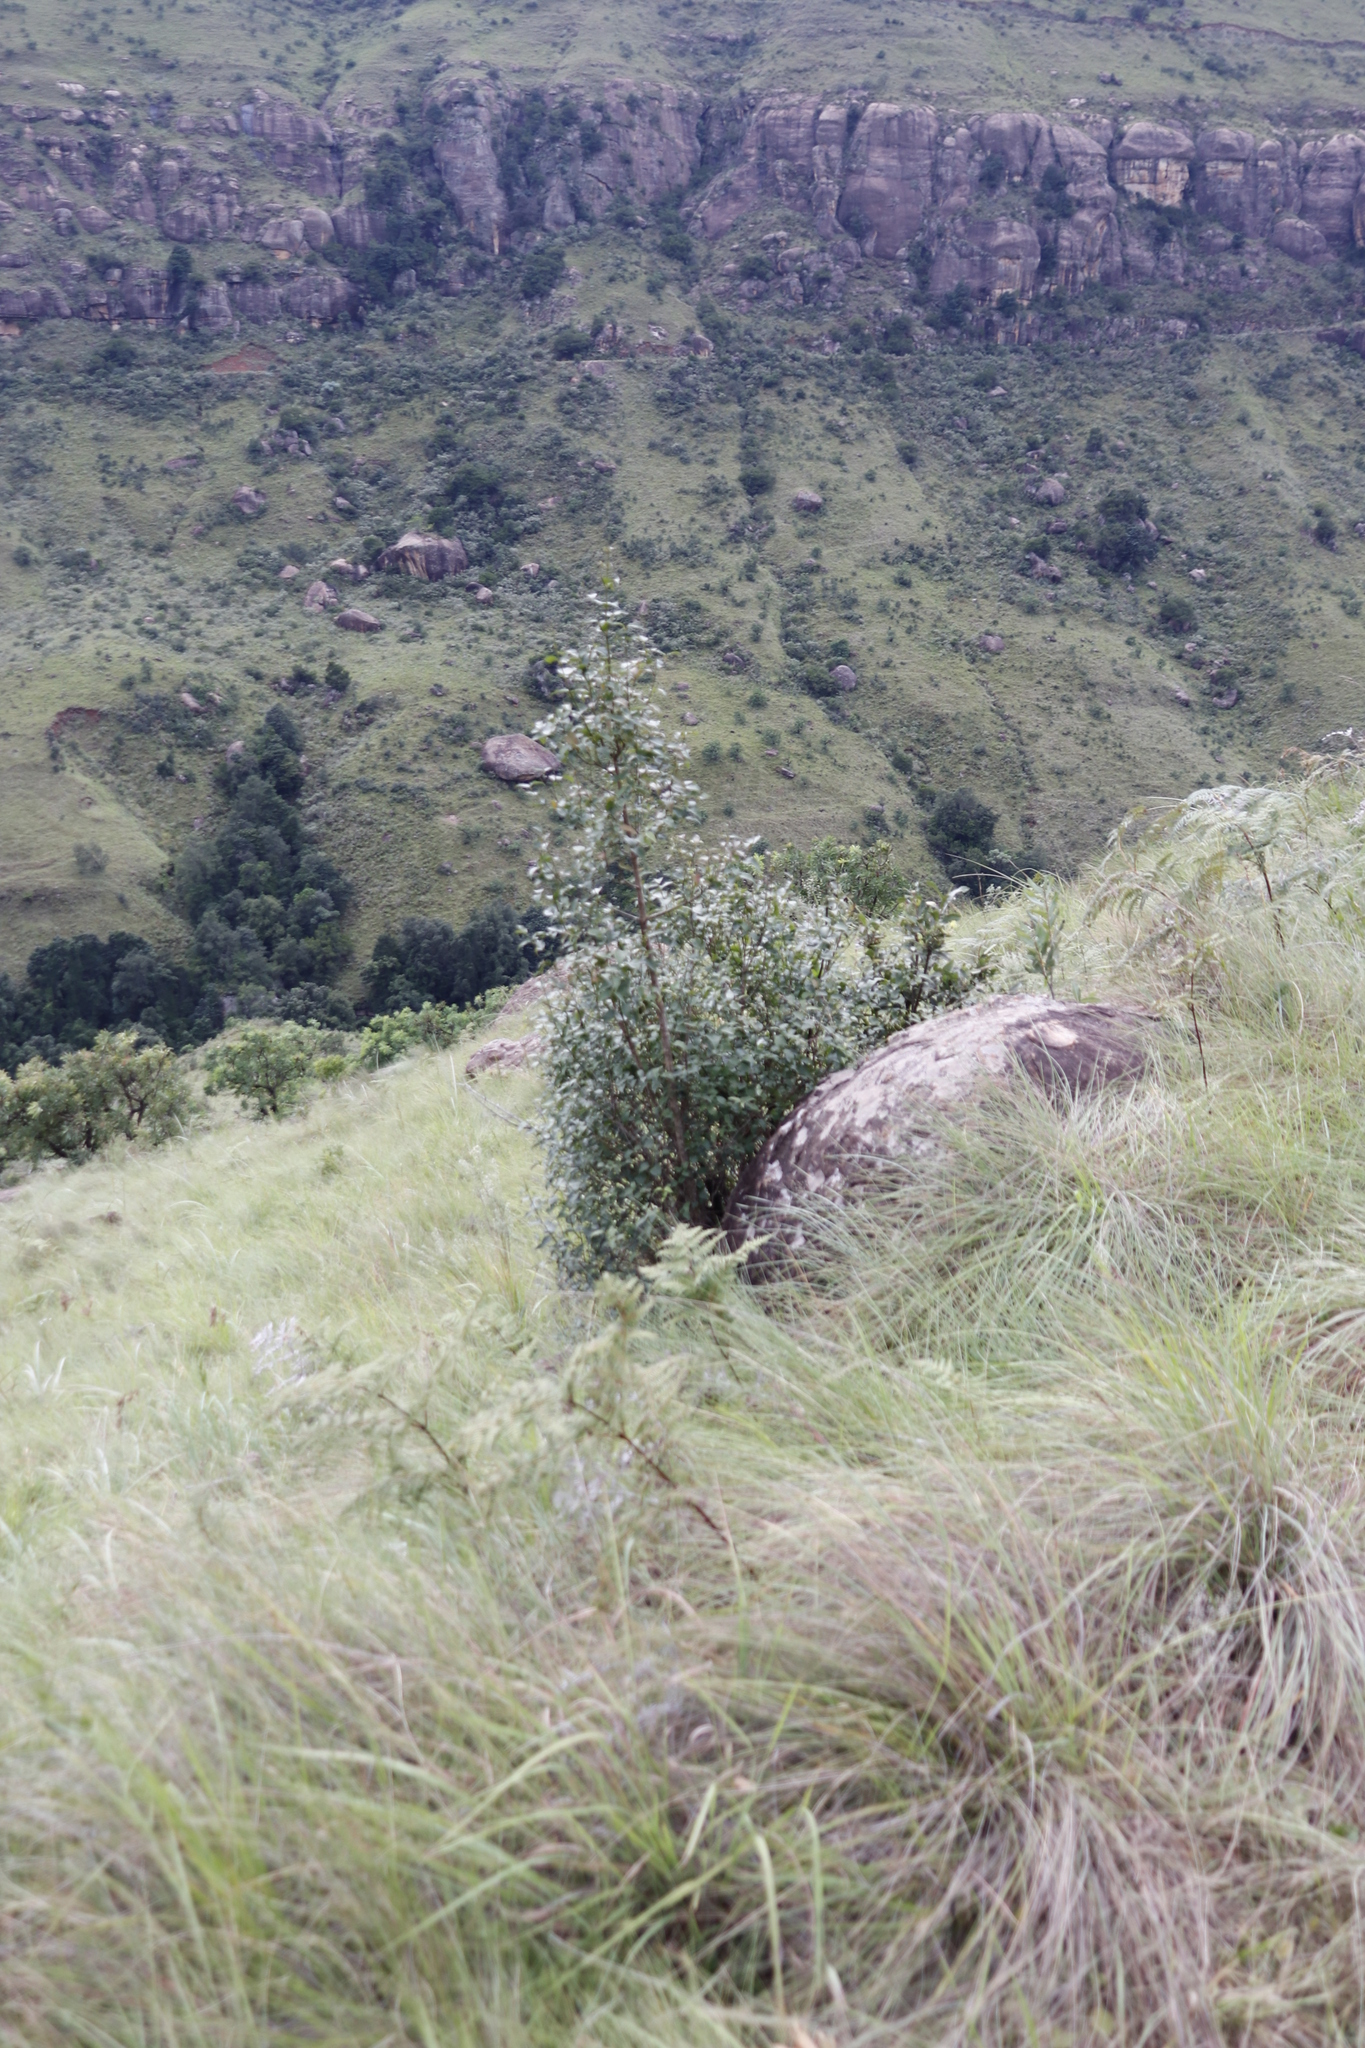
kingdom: Plantae
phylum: Tracheophyta
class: Magnoliopsida
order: Lamiales
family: Stilbaceae
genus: Halleria
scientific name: Halleria lucida
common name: Tree fuschia
